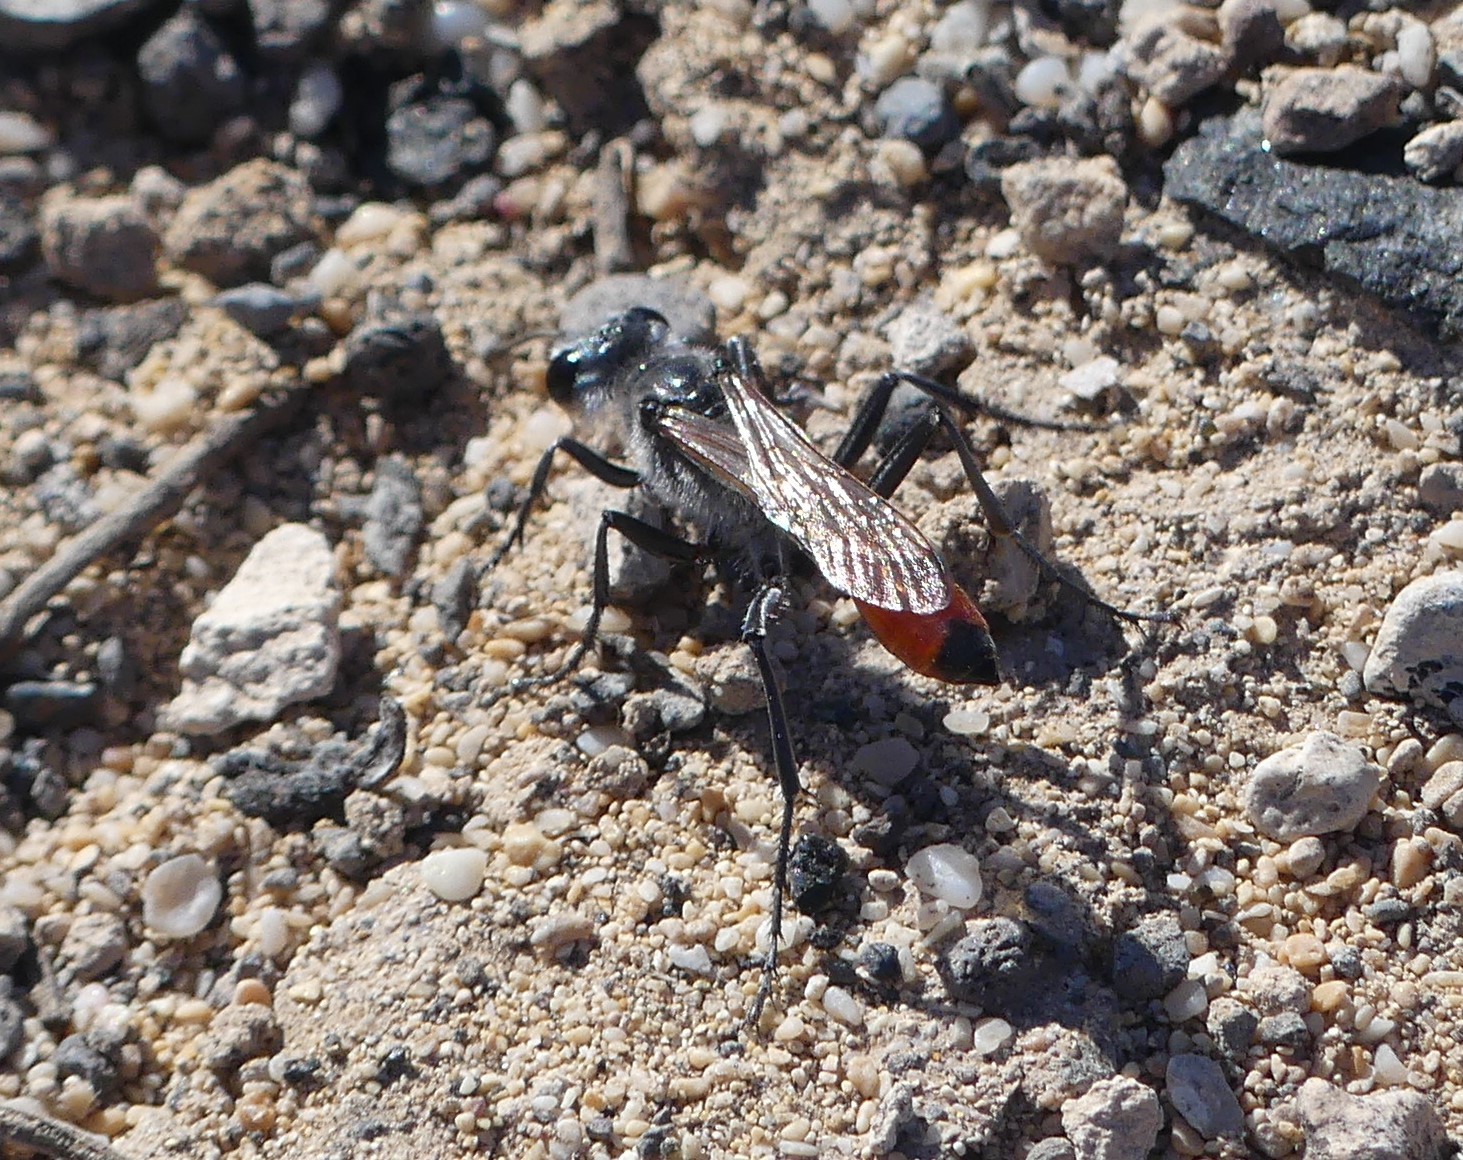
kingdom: Animalia
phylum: Arthropoda
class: Insecta
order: Hymenoptera
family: Sphecidae
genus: Podalonia
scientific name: Podalonia tydei
